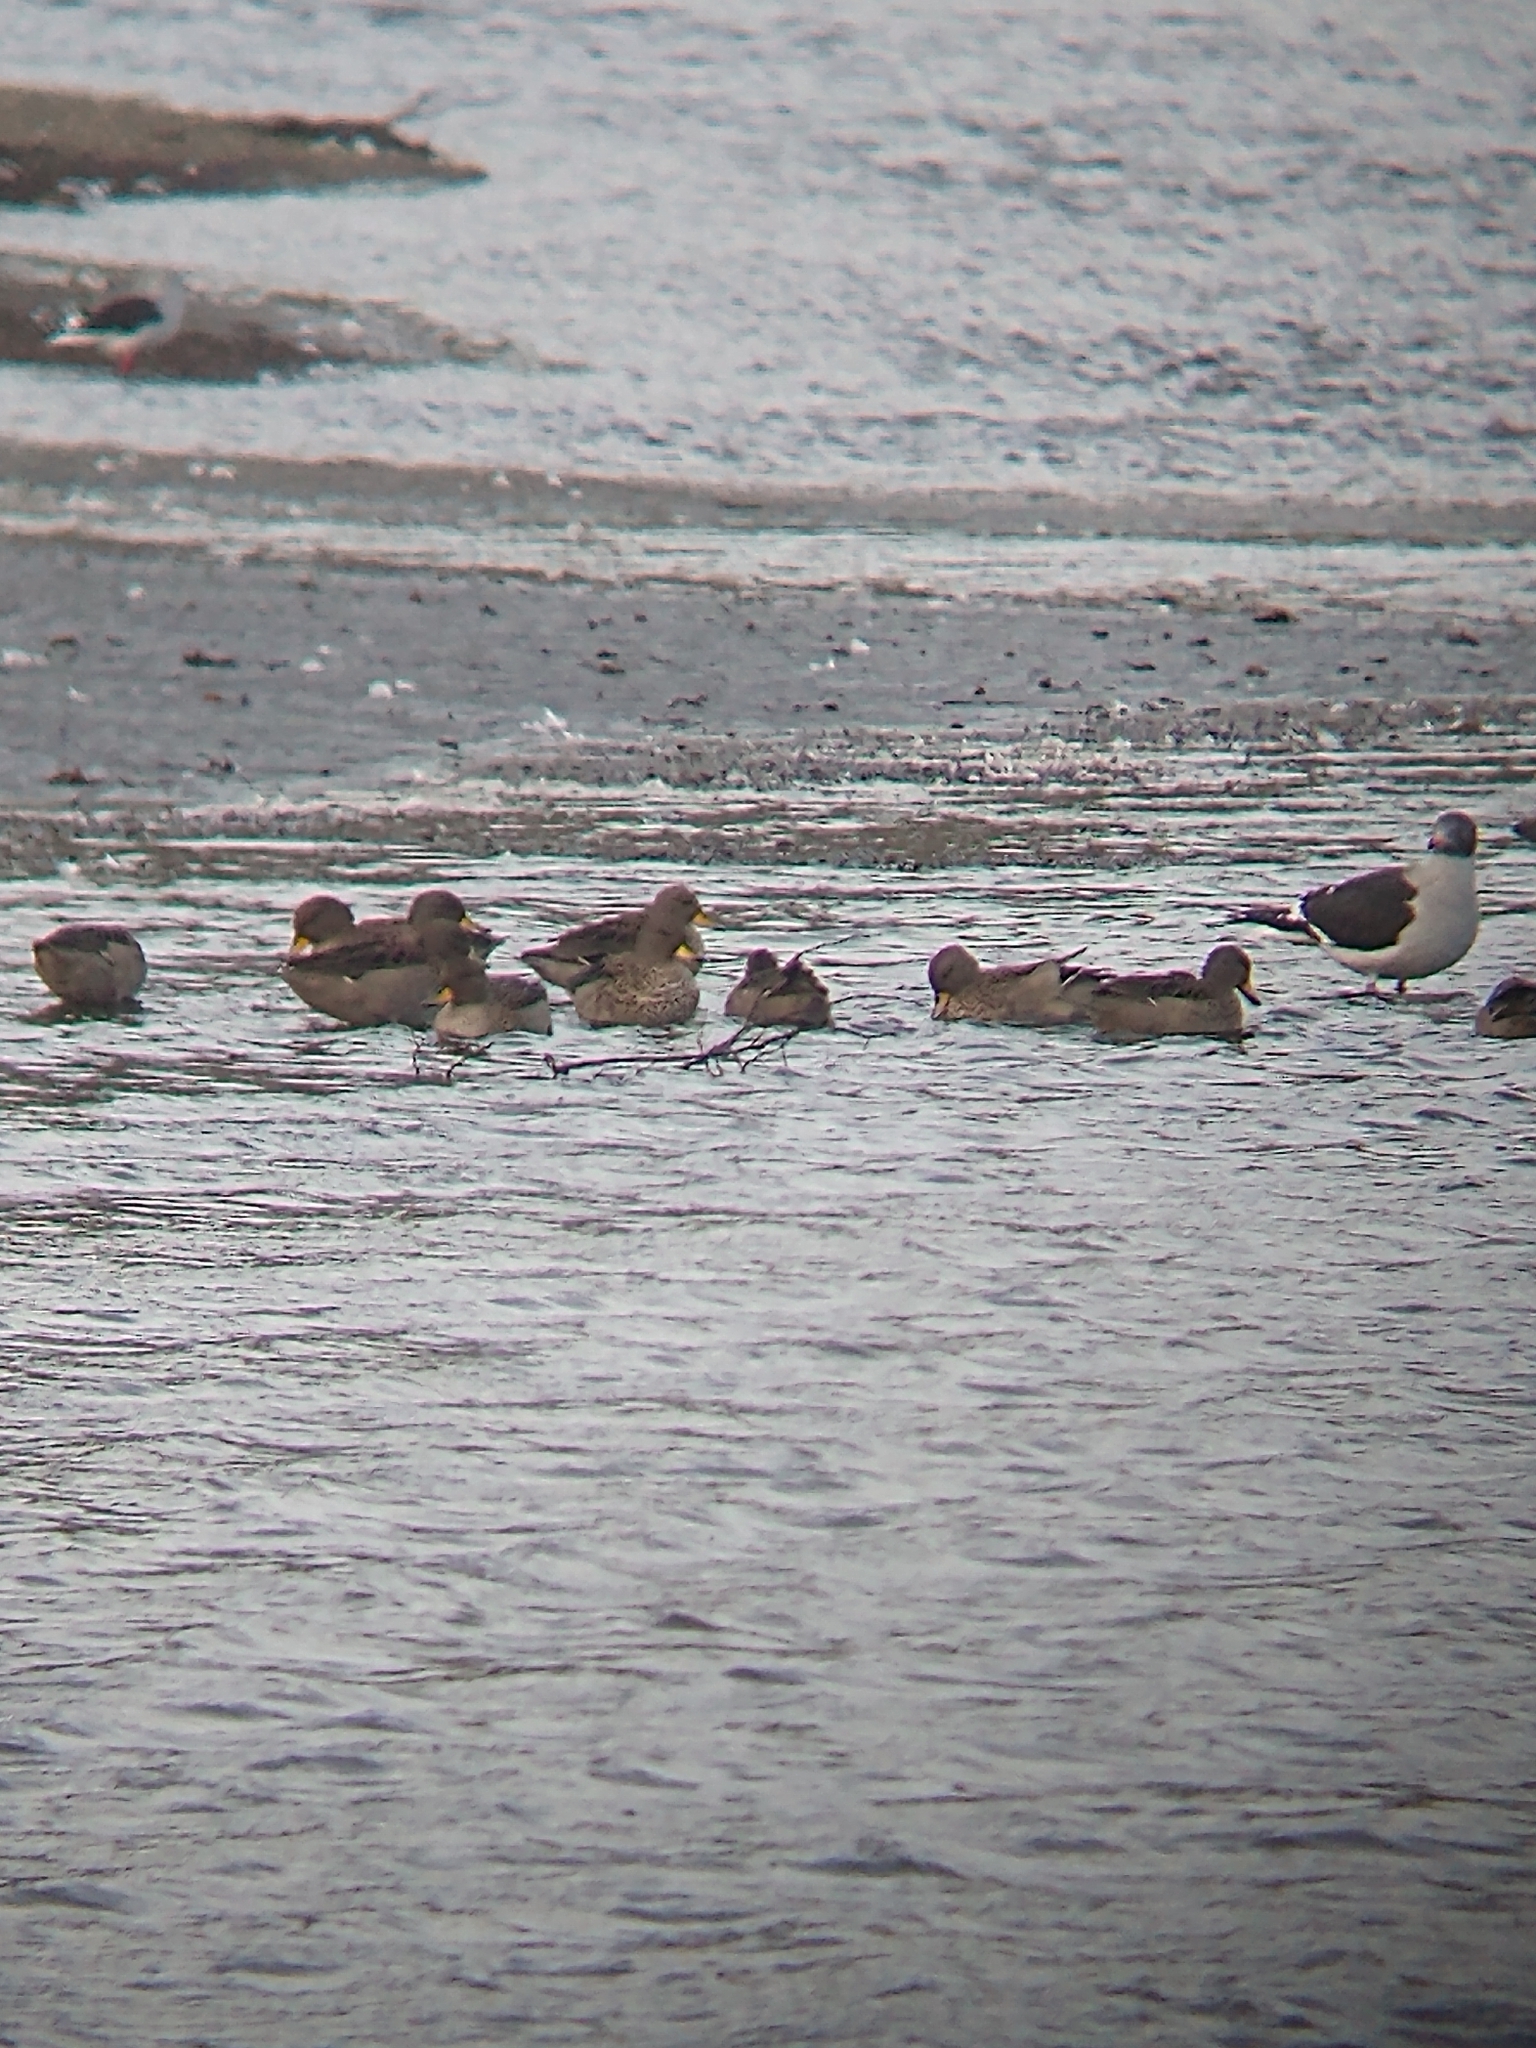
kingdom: Animalia
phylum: Chordata
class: Aves
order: Anseriformes
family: Anatidae
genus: Anas
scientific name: Anas flavirostris
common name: Yellow-billed teal
